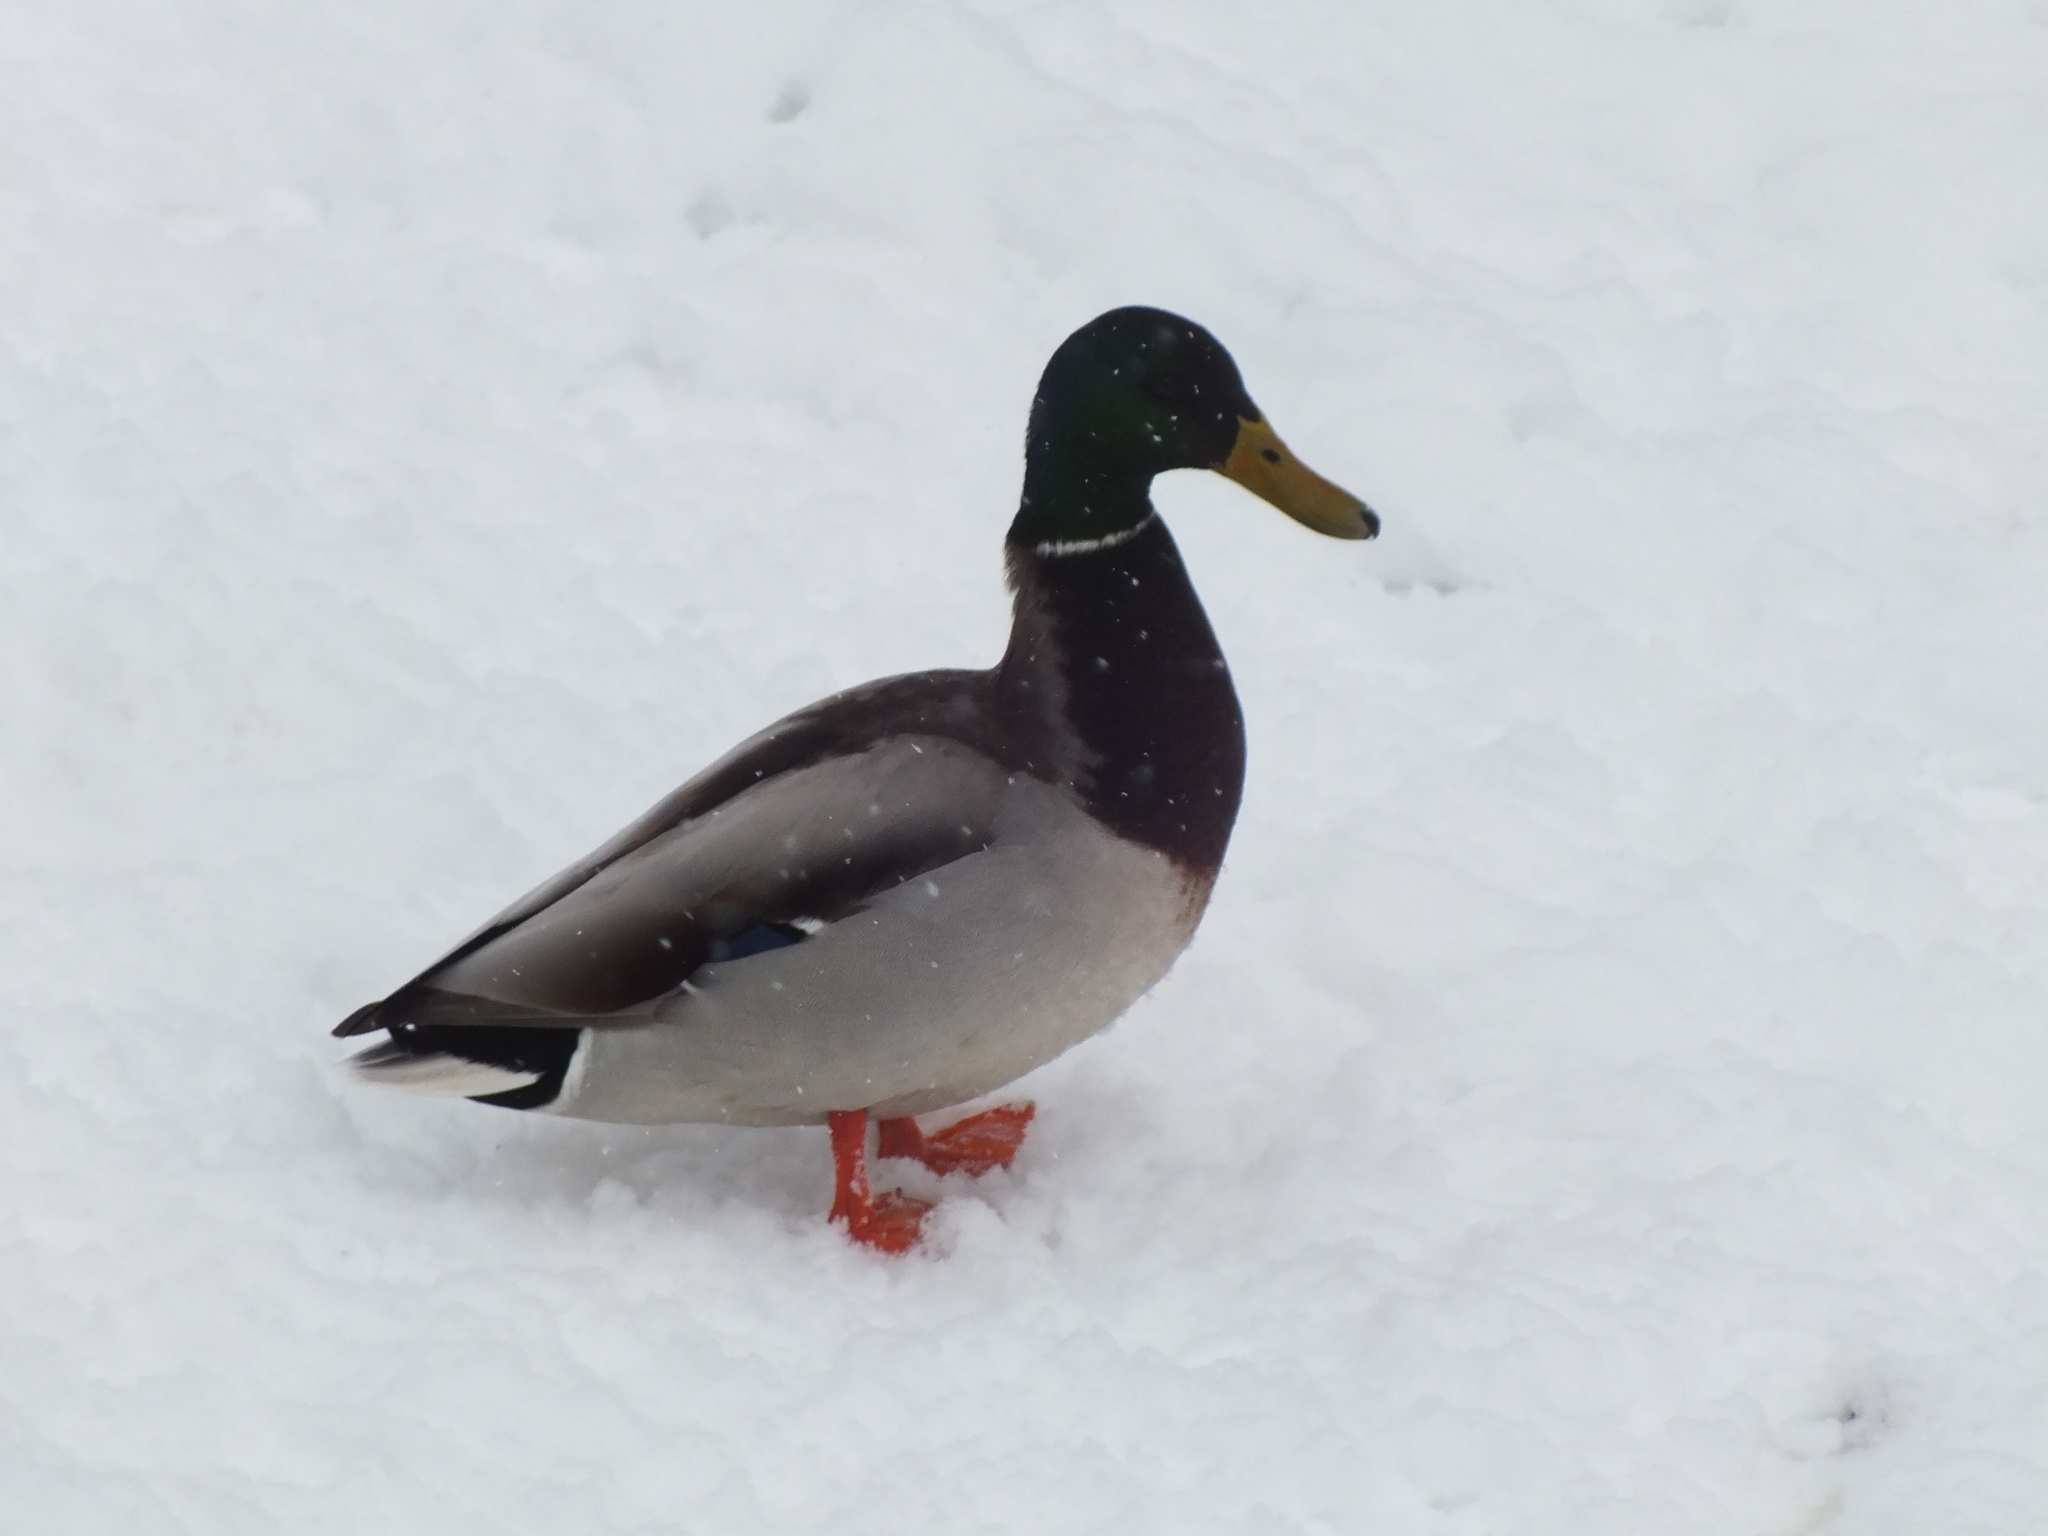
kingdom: Animalia
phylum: Chordata
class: Aves
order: Anseriformes
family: Anatidae
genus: Anas
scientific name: Anas platyrhynchos
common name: Mallard
